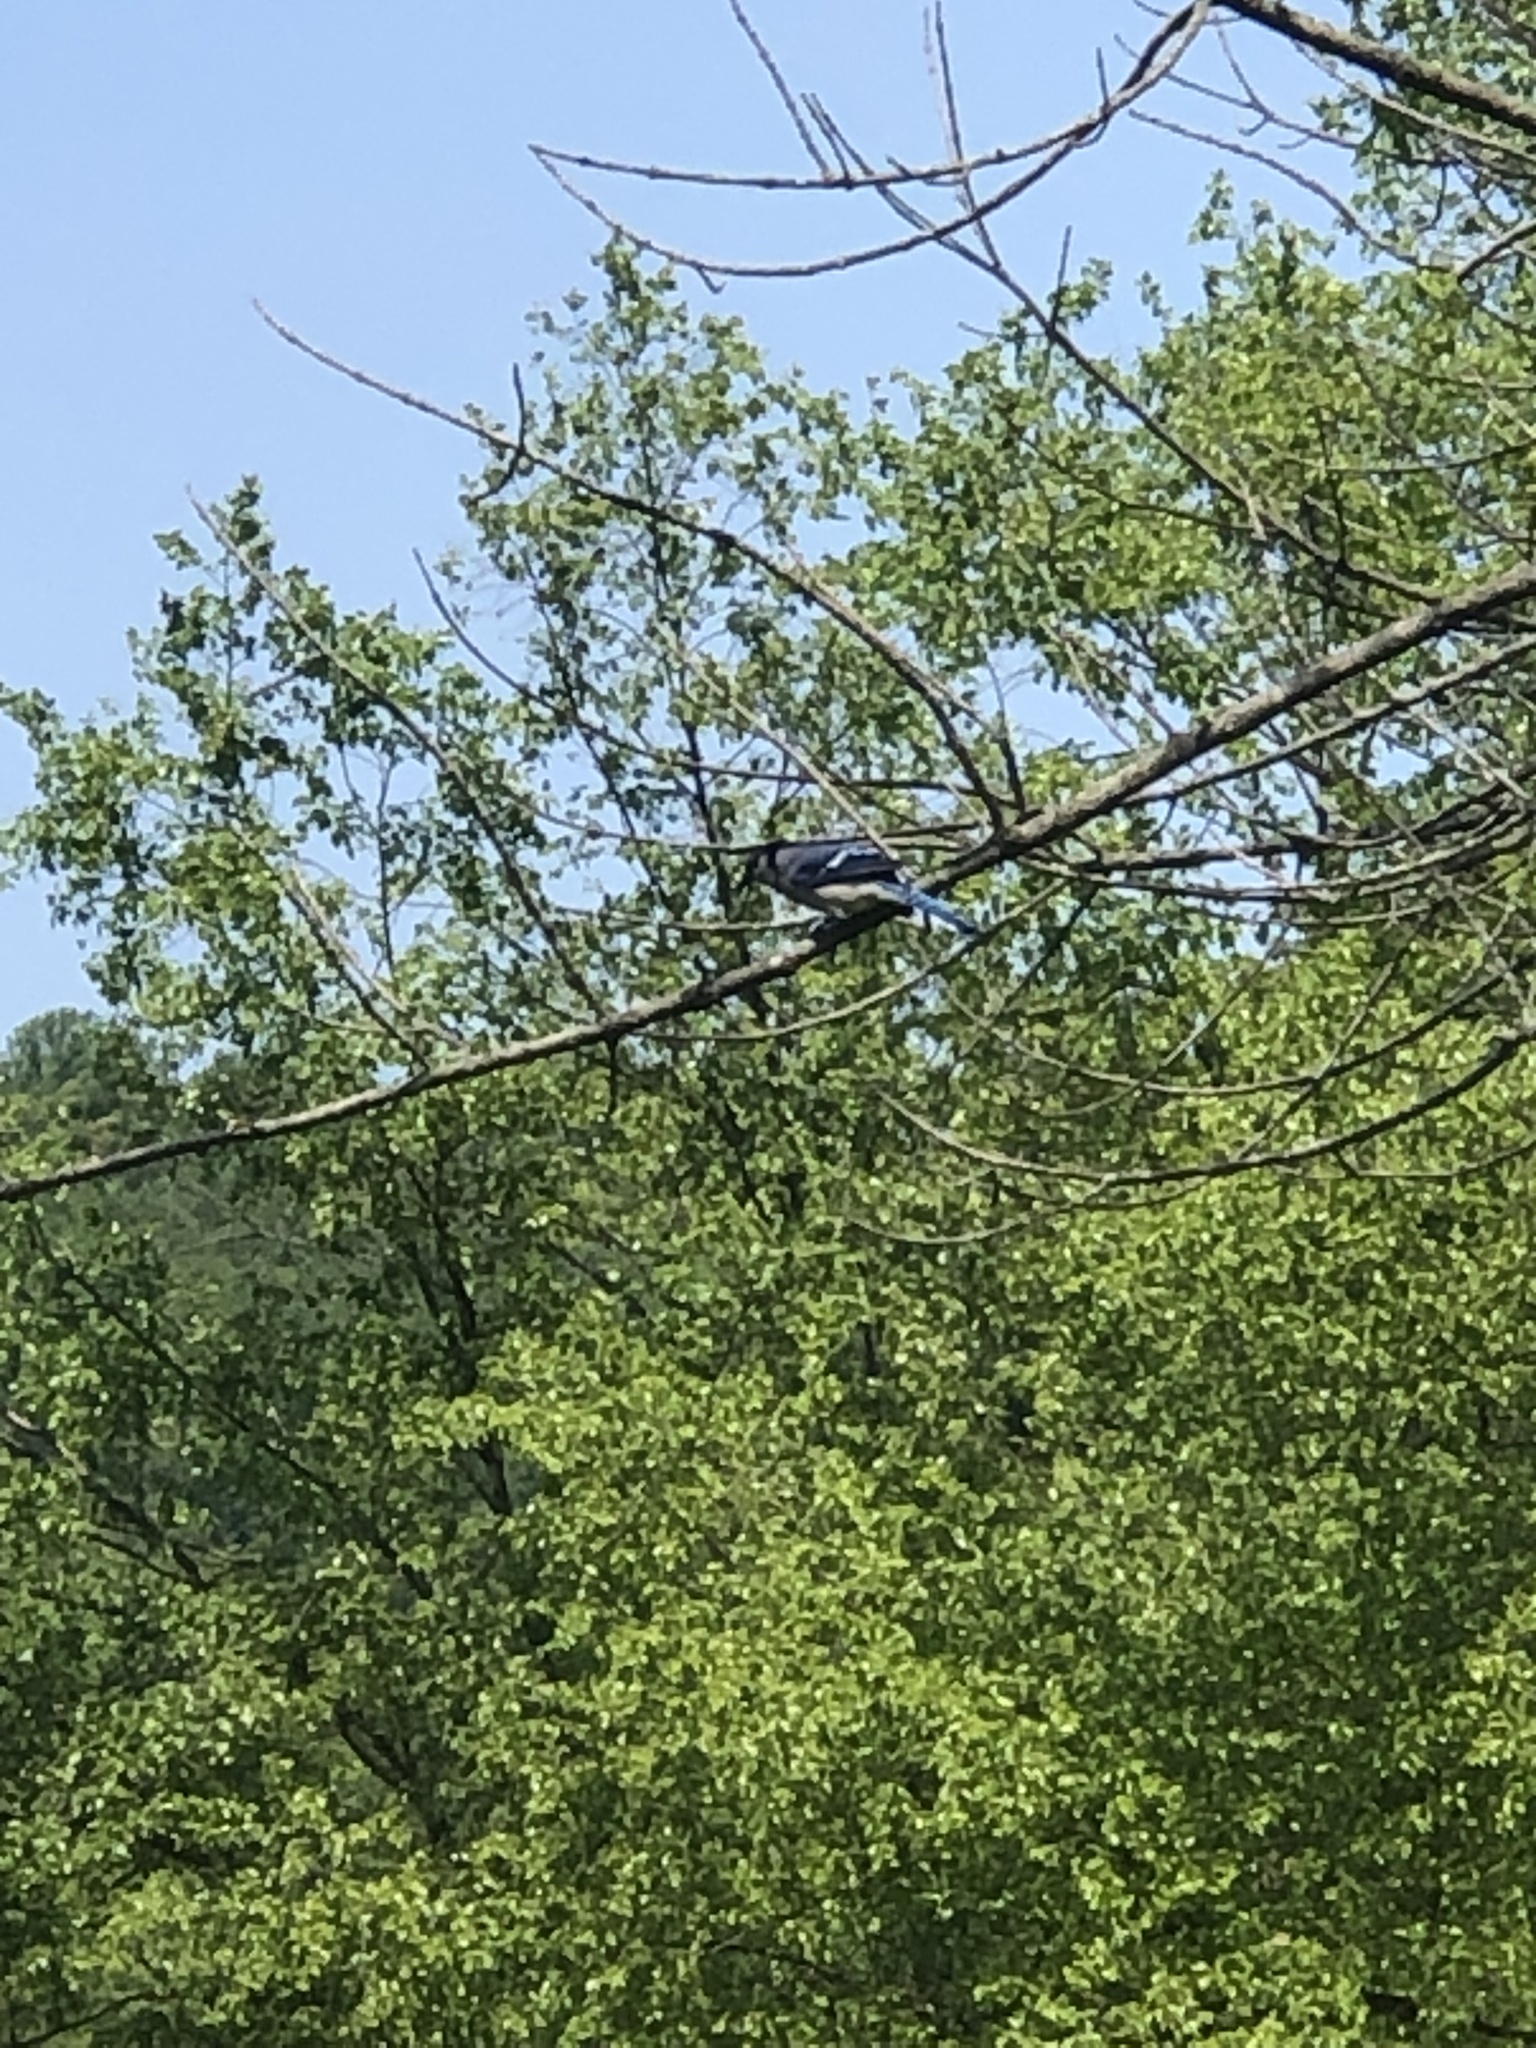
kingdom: Animalia
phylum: Chordata
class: Aves
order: Passeriformes
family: Corvidae
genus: Cyanocitta
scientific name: Cyanocitta cristata
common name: Blue jay
